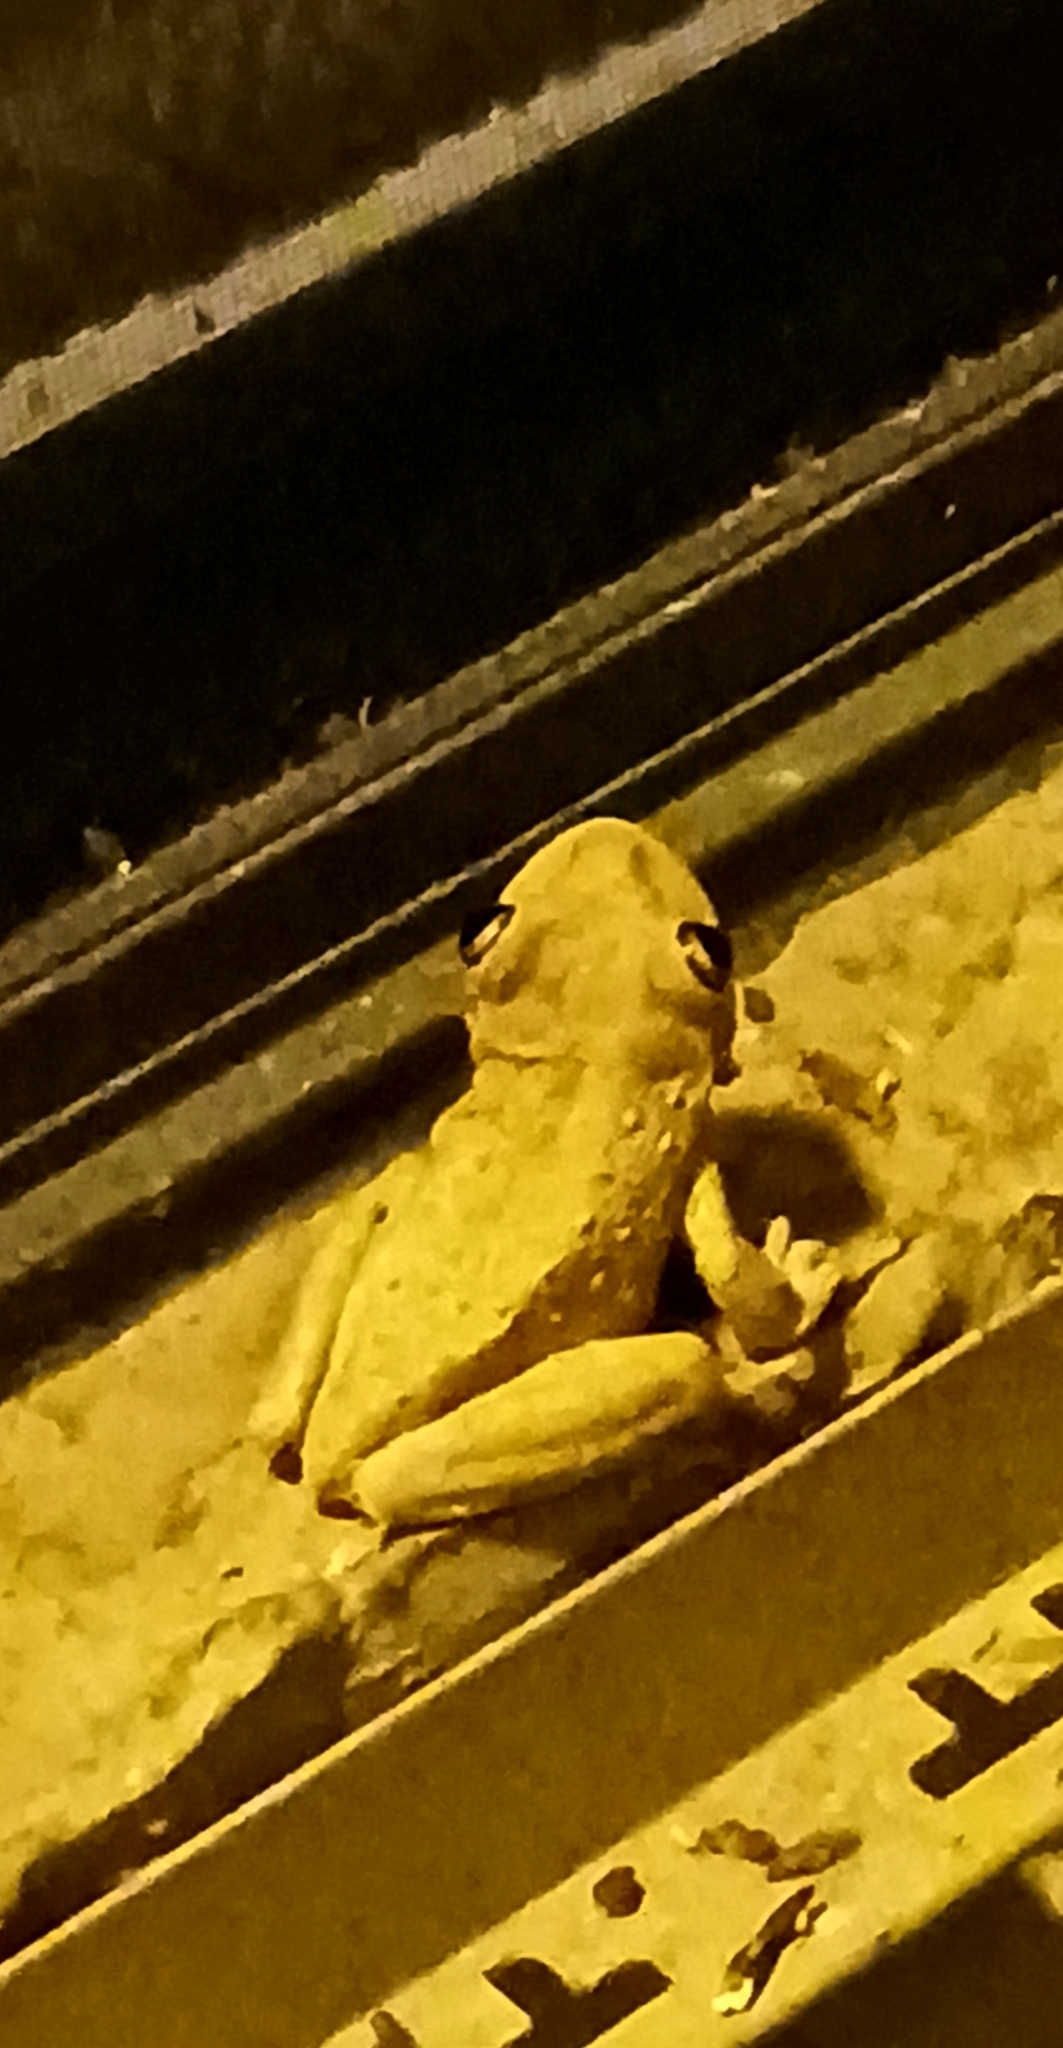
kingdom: Animalia
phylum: Chordata
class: Amphibia
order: Anura
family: Hylidae
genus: Osteopilus
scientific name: Osteopilus septentrionalis
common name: Cuban treefrog
